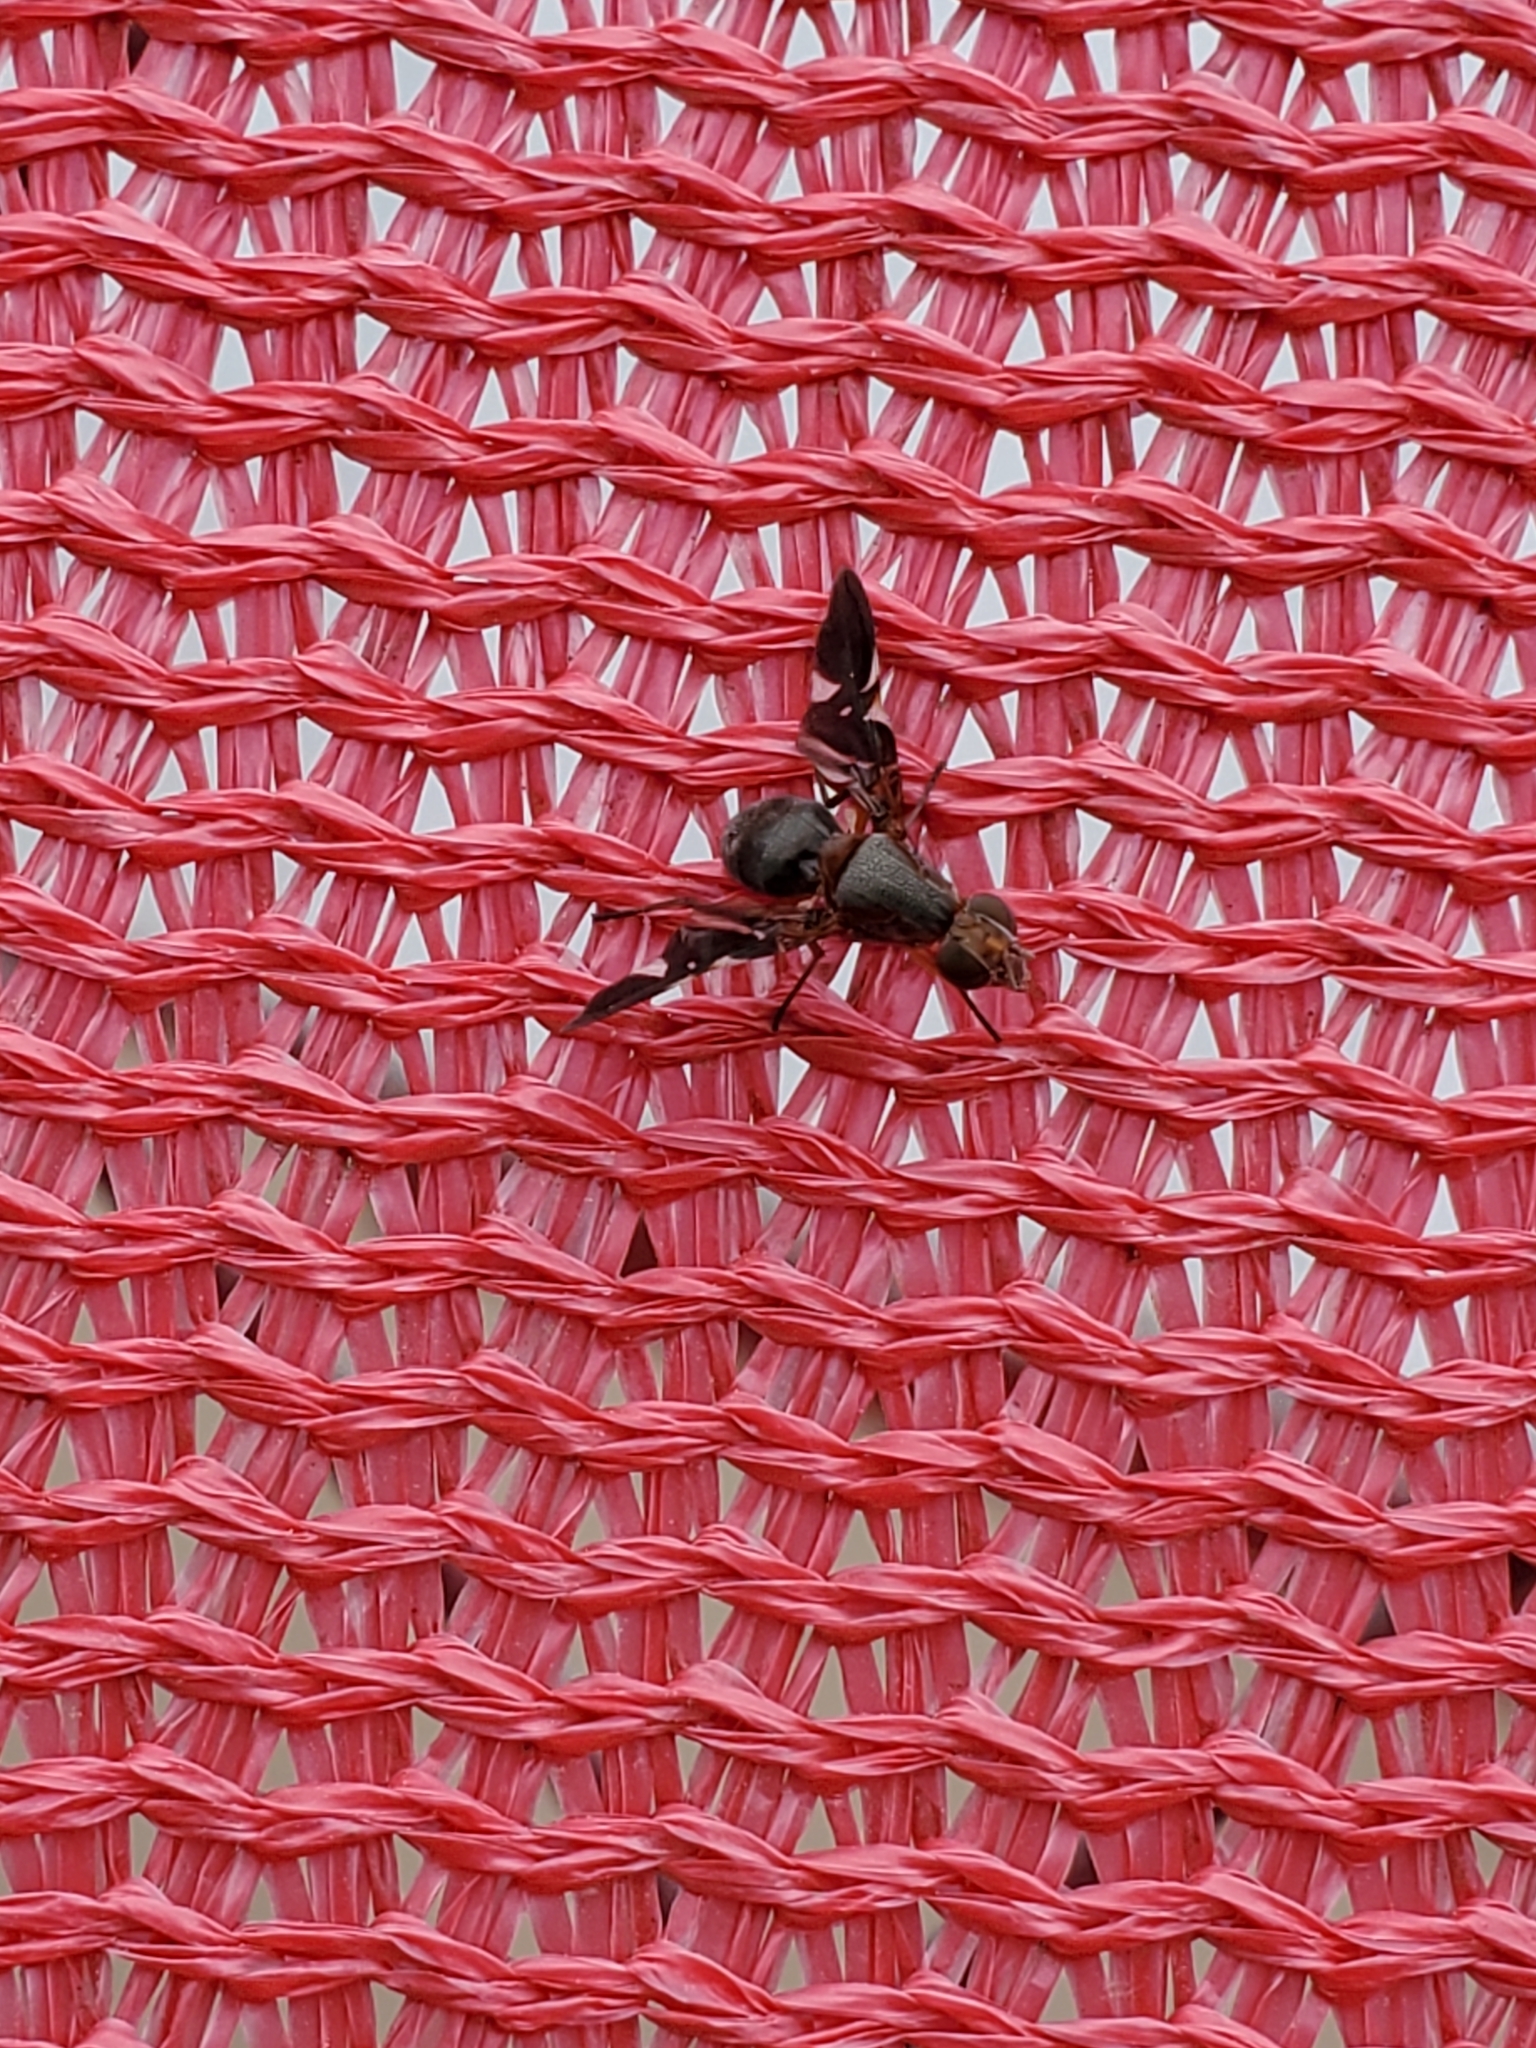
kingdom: Animalia
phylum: Arthropoda
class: Insecta
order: Diptera
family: Ulidiidae
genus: Delphinia
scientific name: Delphinia picta
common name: Common picture-winged fly
